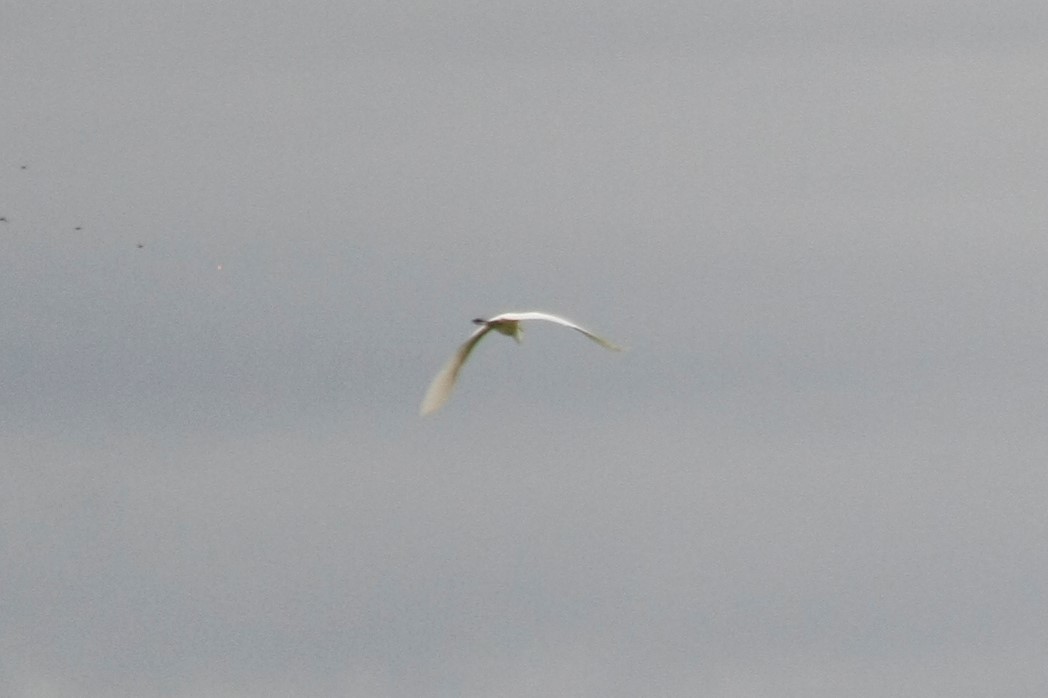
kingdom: Animalia
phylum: Chordata
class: Aves
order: Pelecaniformes
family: Ardeidae
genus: Ardea
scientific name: Ardea alba
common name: Great egret
